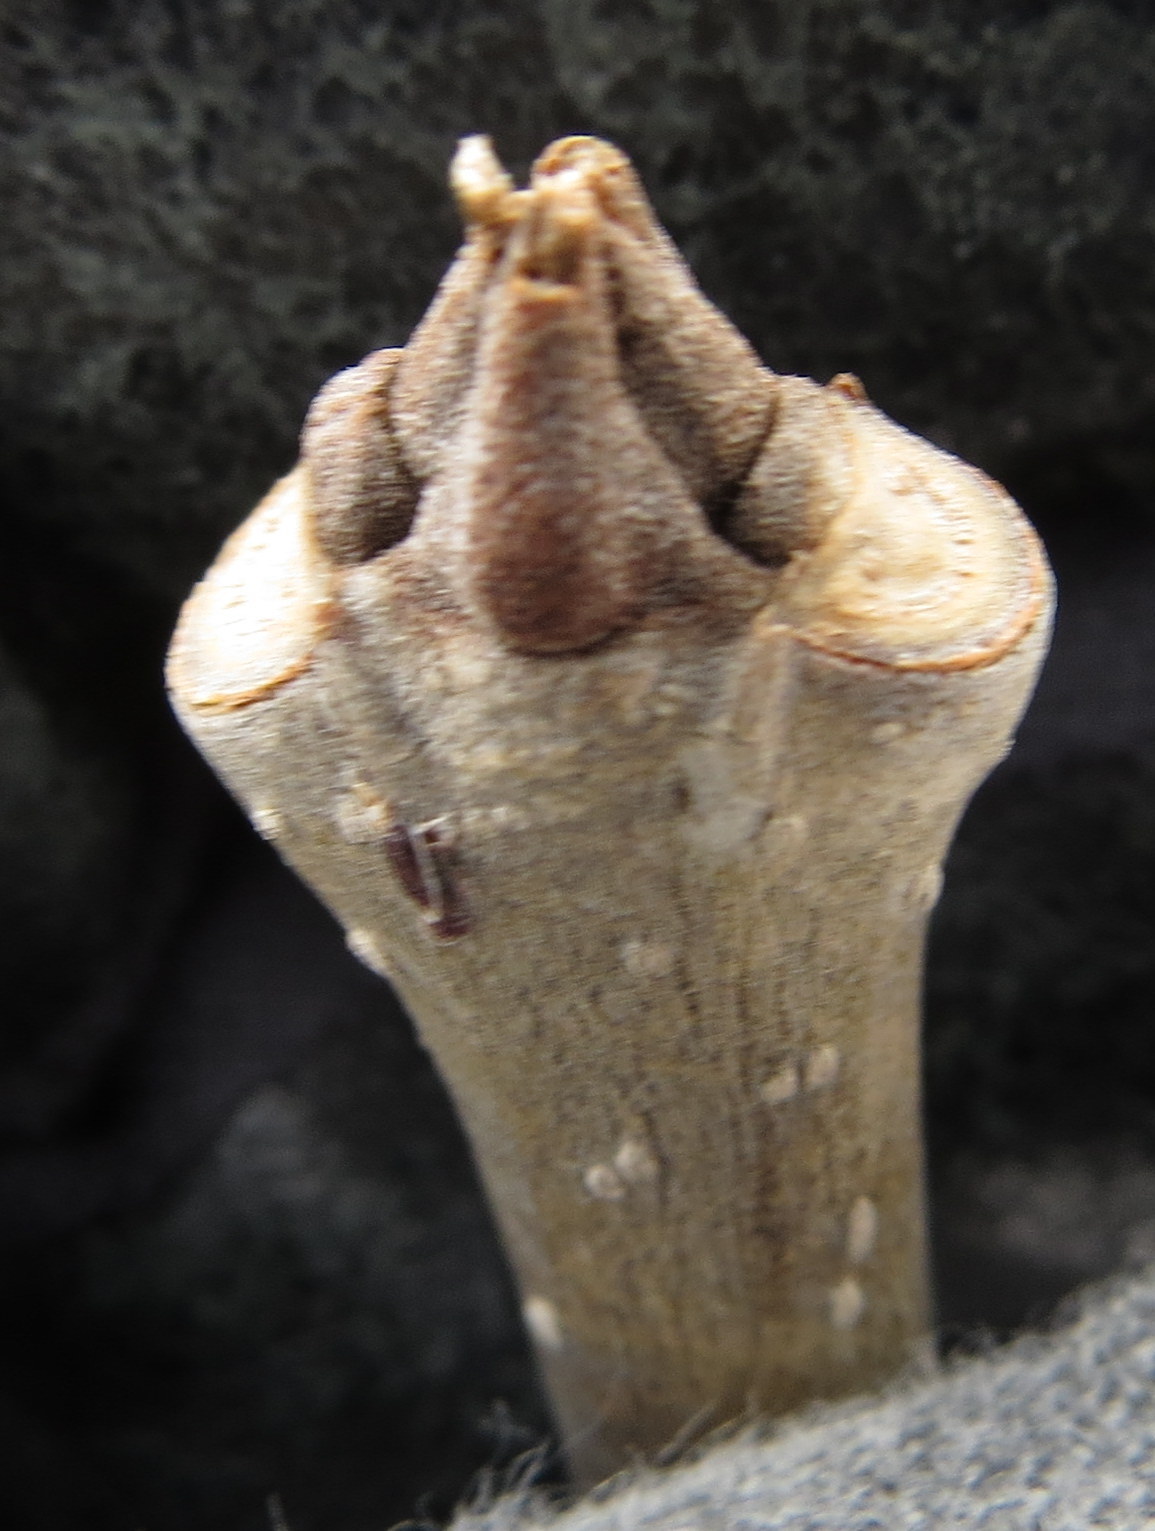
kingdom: Plantae
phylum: Tracheophyta
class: Magnoliopsida
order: Lamiales
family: Oleaceae
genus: Fraxinus
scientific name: Fraxinus pennsylvanica
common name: Green ash
